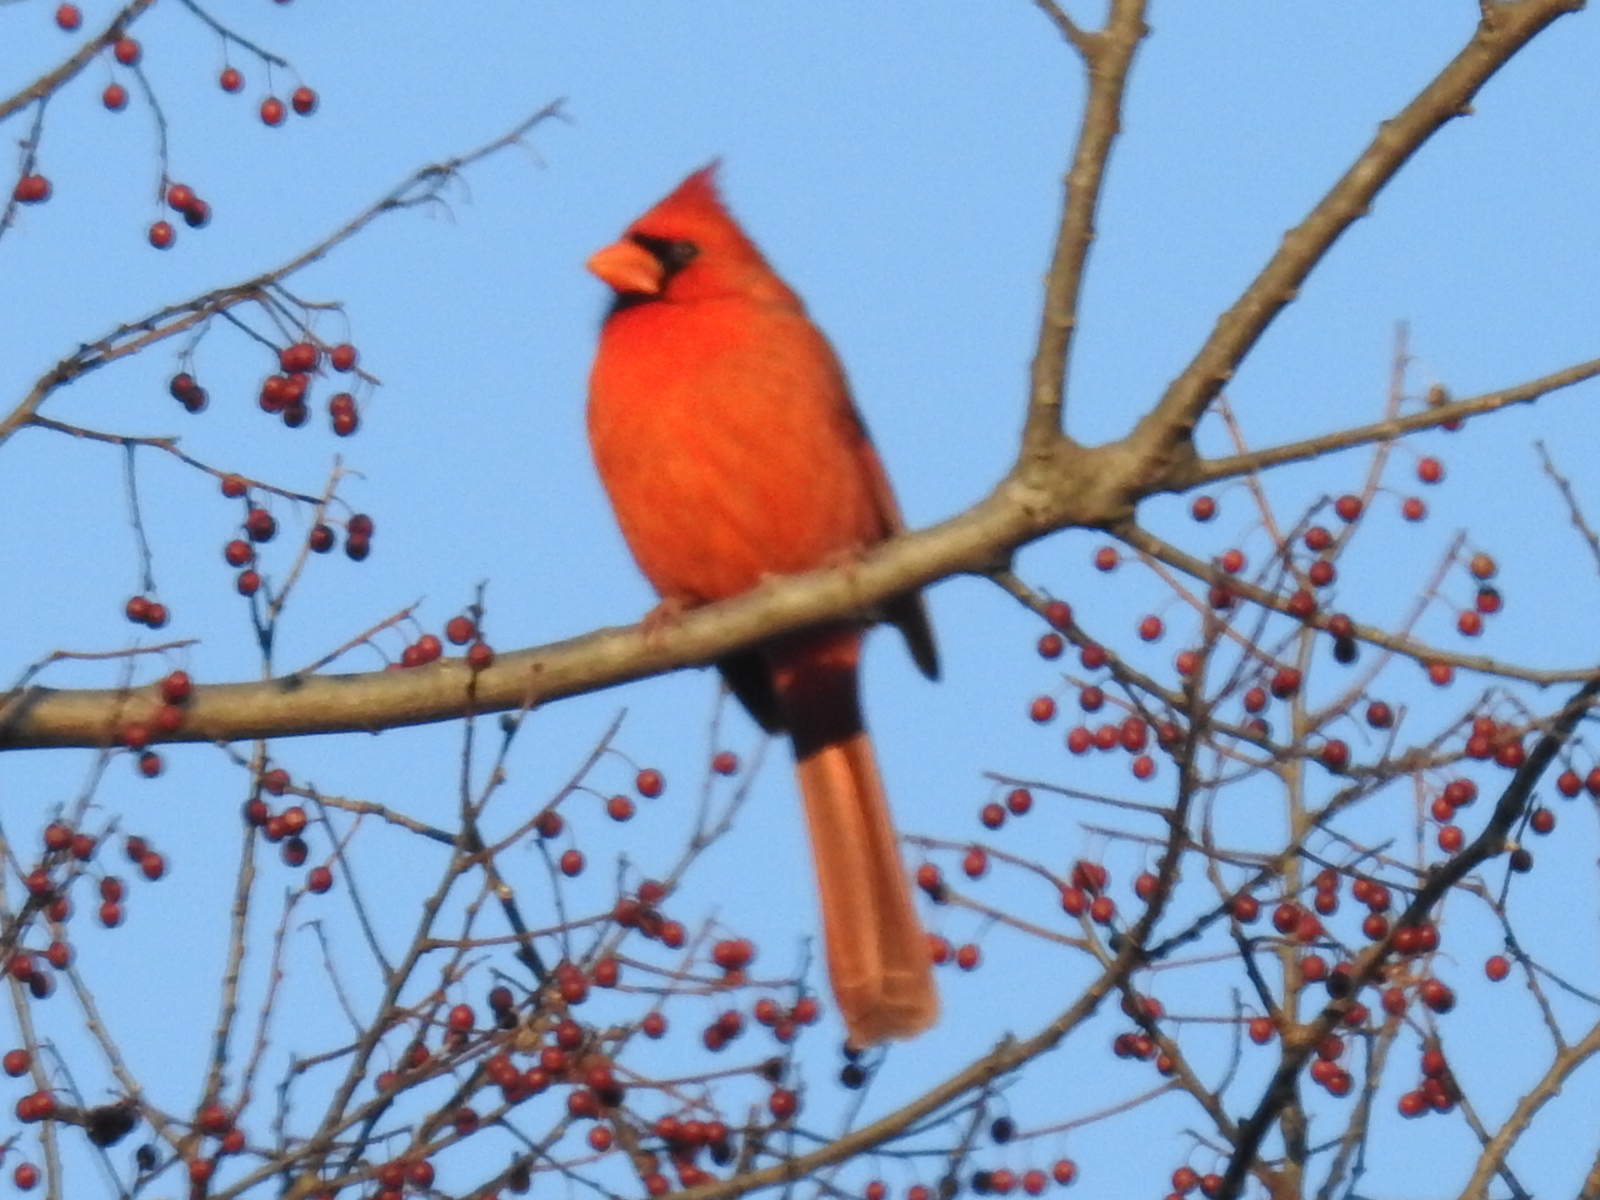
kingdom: Animalia
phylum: Chordata
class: Aves
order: Passeriformes
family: Cardinalidae
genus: Cardinalis
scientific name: Cardinalis cardinalis
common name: Northern cardinal
